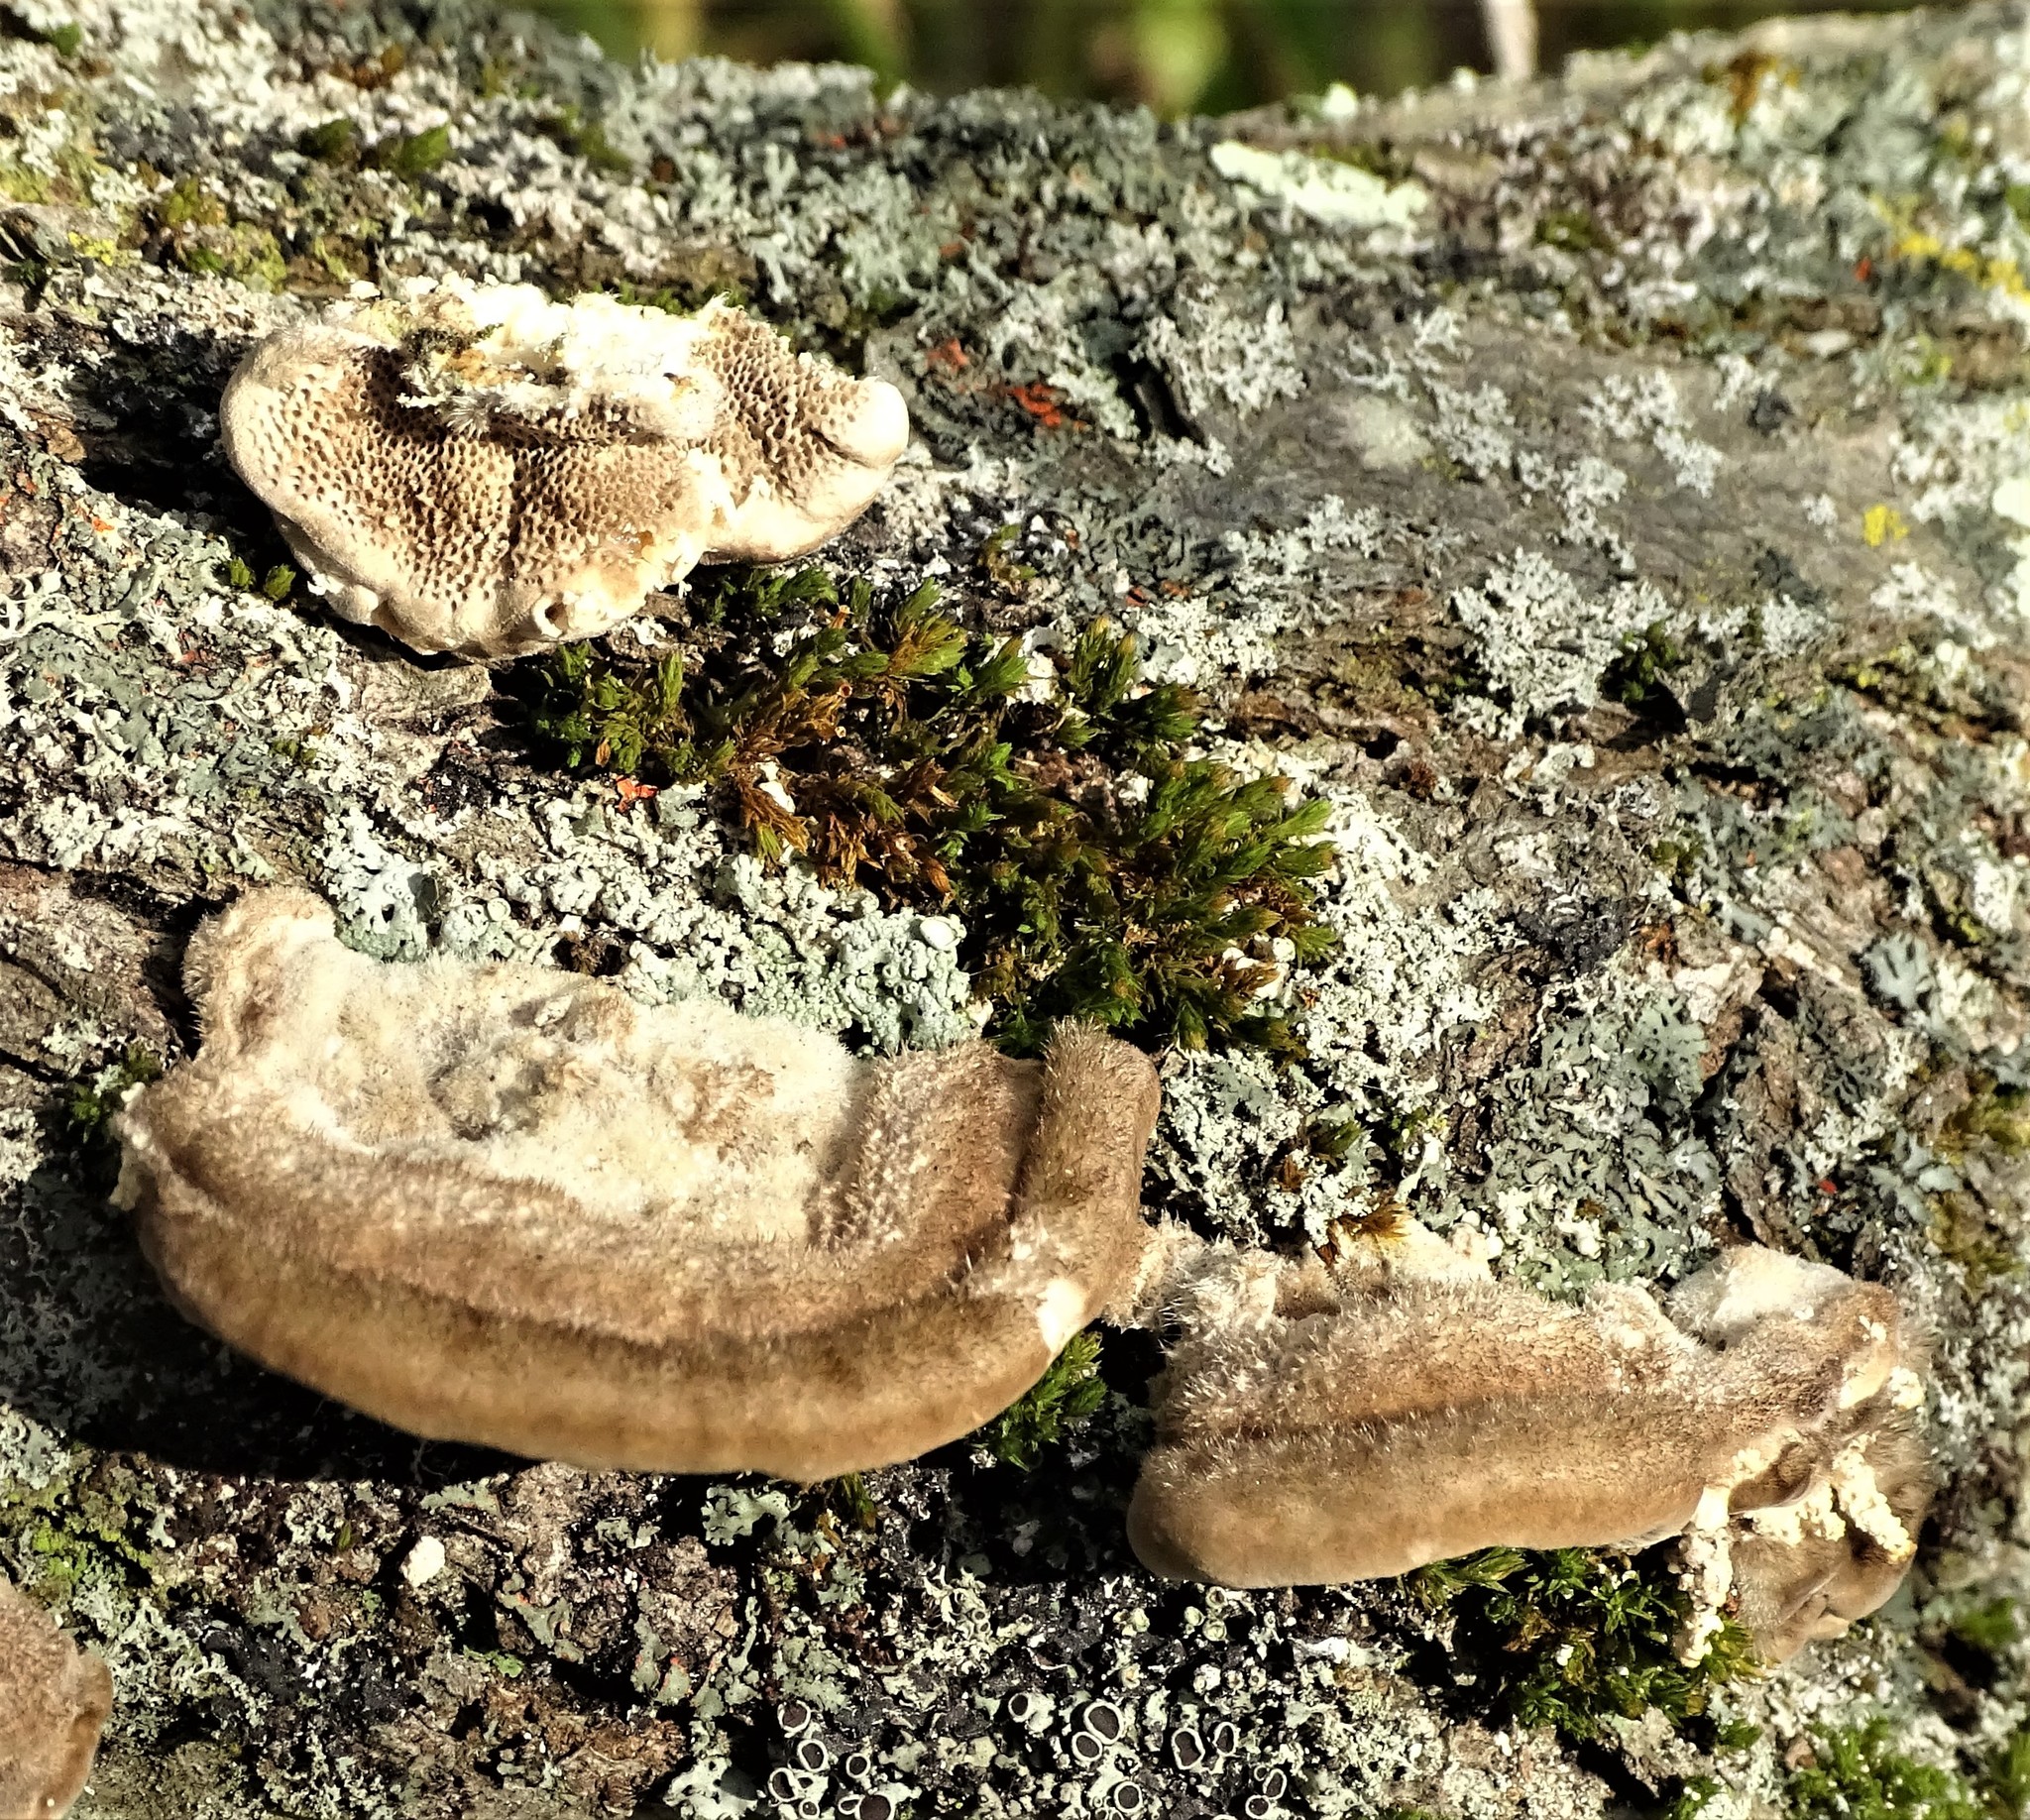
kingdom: Fungi
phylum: Basidiomycota
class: Agaricomycetes
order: Polyporales
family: Polyporaceae
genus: Trametes
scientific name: Trametes hirsuta
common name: Hairy bracket
